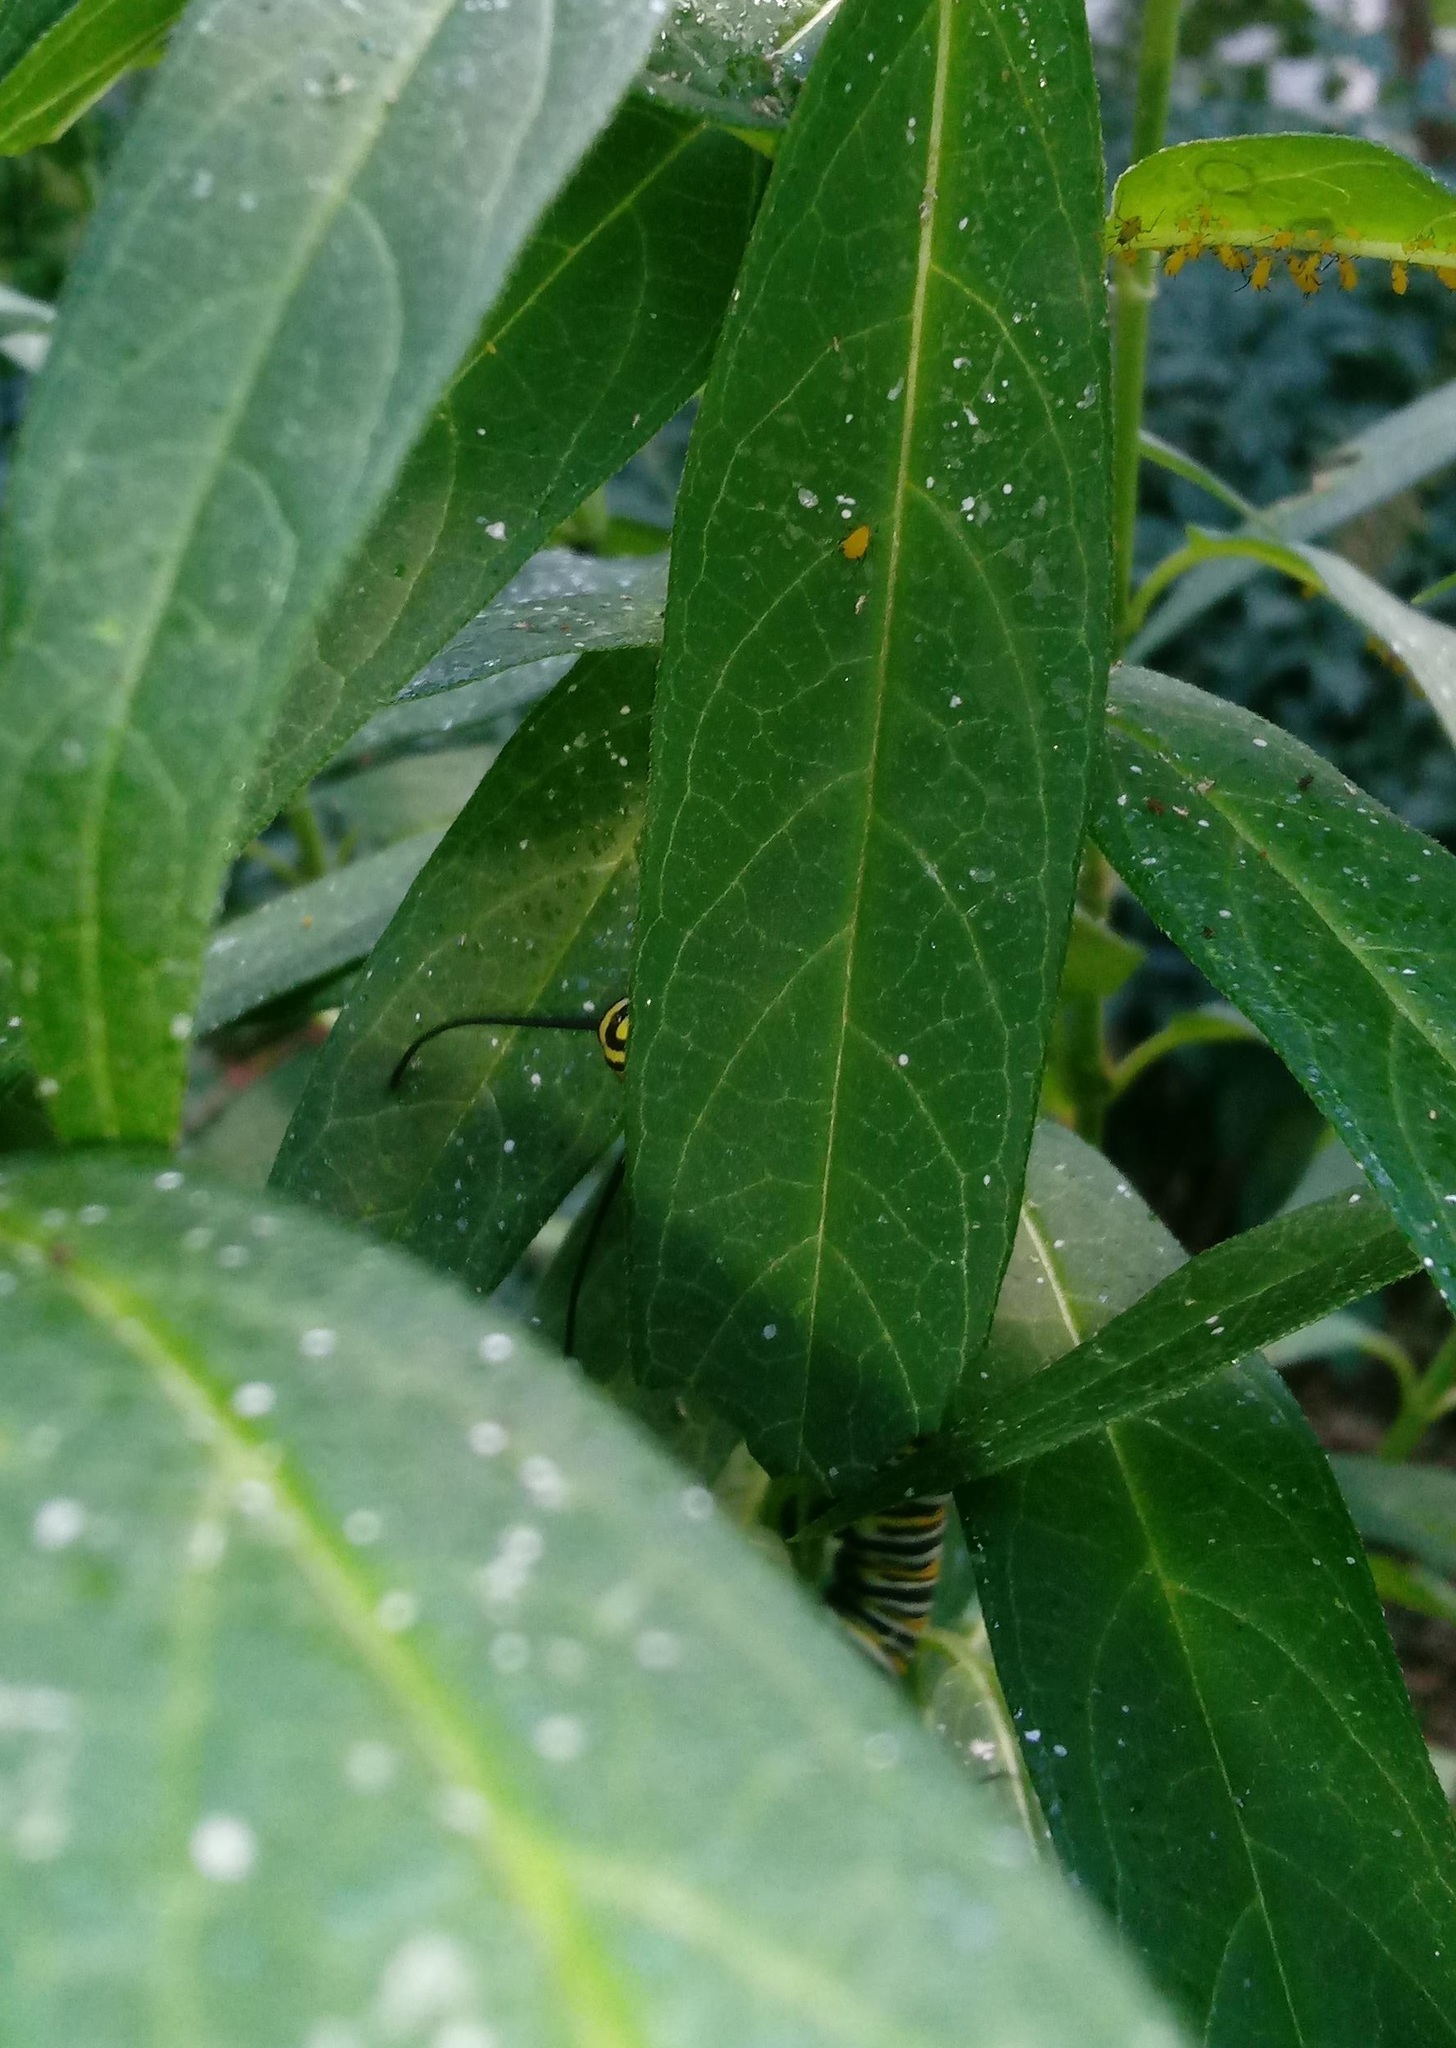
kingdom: Animalia
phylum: Arthropoda
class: Insecta
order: Lepidoptera
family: Nymphalidae
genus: Danaus
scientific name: Danaus plexippus
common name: Monarch
